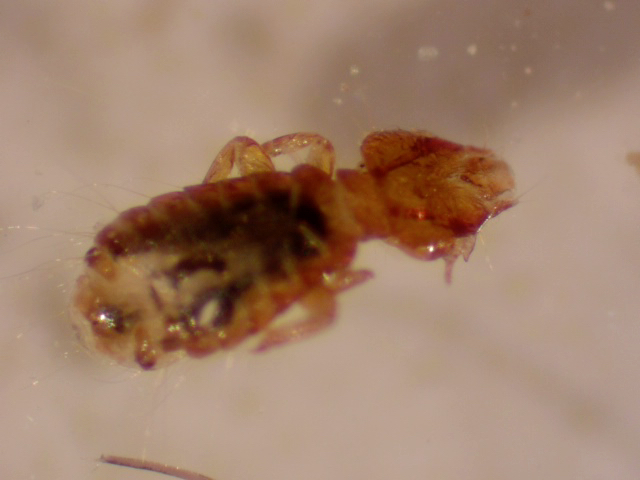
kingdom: Animalia
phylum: Arthropoda
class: Insecta
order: Psocodea
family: Philopteridae
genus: Strigiphilus
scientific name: Strigiphilus vapidus
